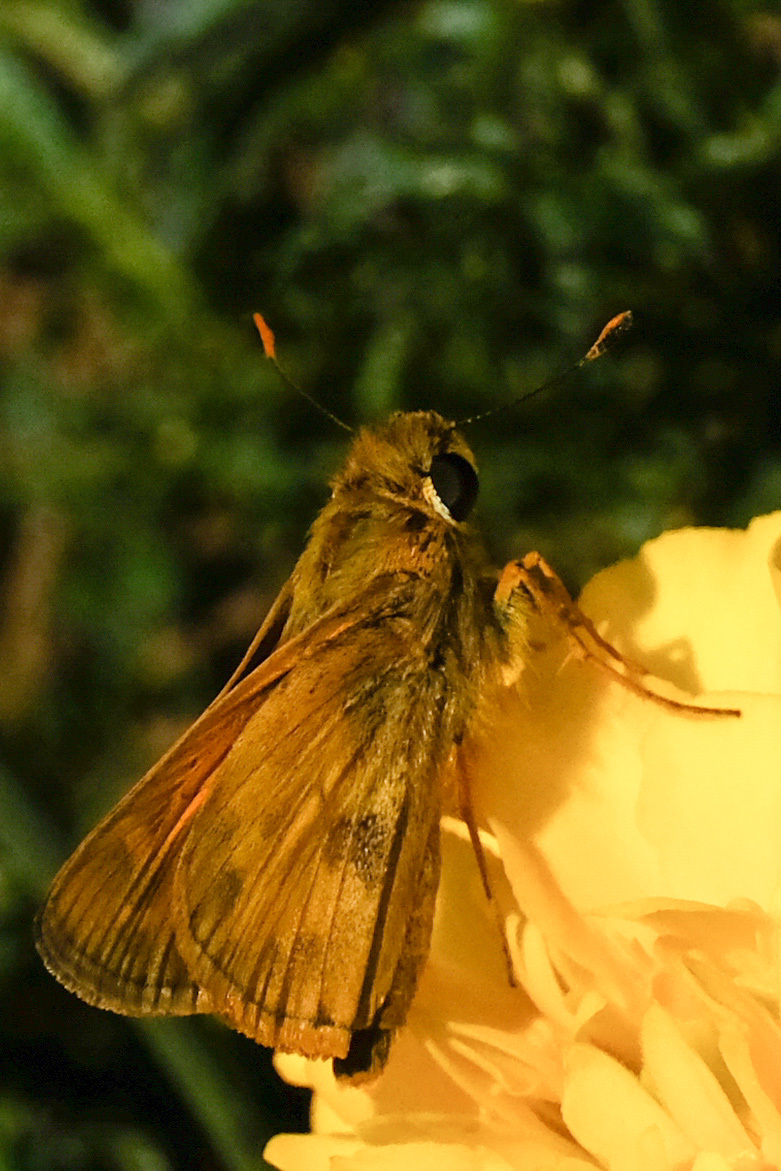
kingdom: Animalia
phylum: Arthropoda
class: Insecta
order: Lepidoptera
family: Hesperiidae
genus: Atalopedes
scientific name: Atalopedes
